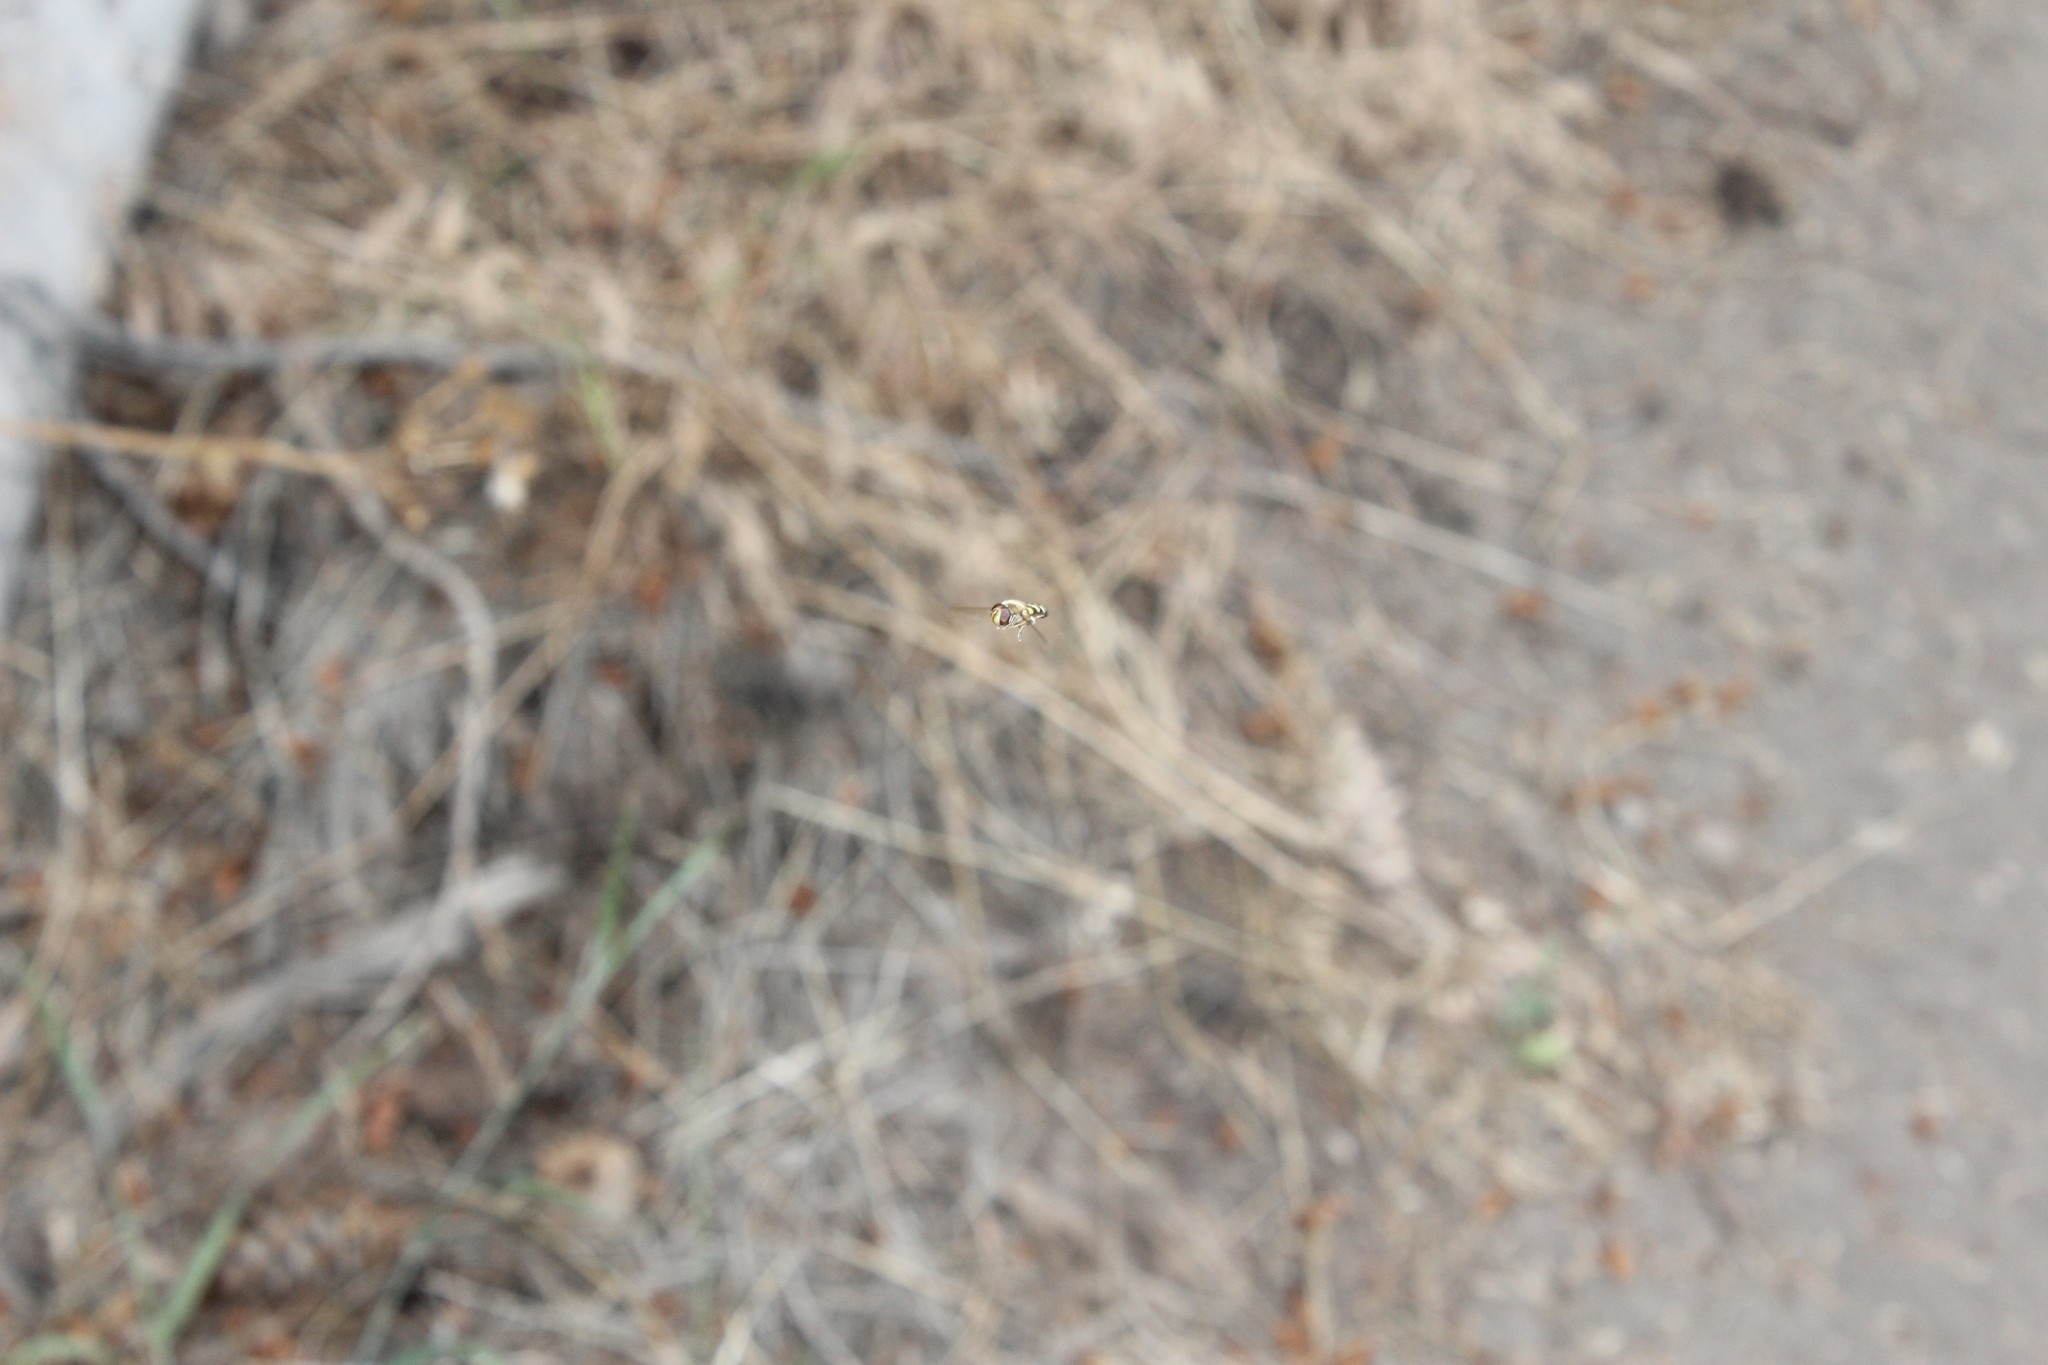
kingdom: Animalia
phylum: Arthropoda
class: Insecta
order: Diptera
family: Syrphidae
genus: Eupeodes
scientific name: Eupeodes fumipennis
